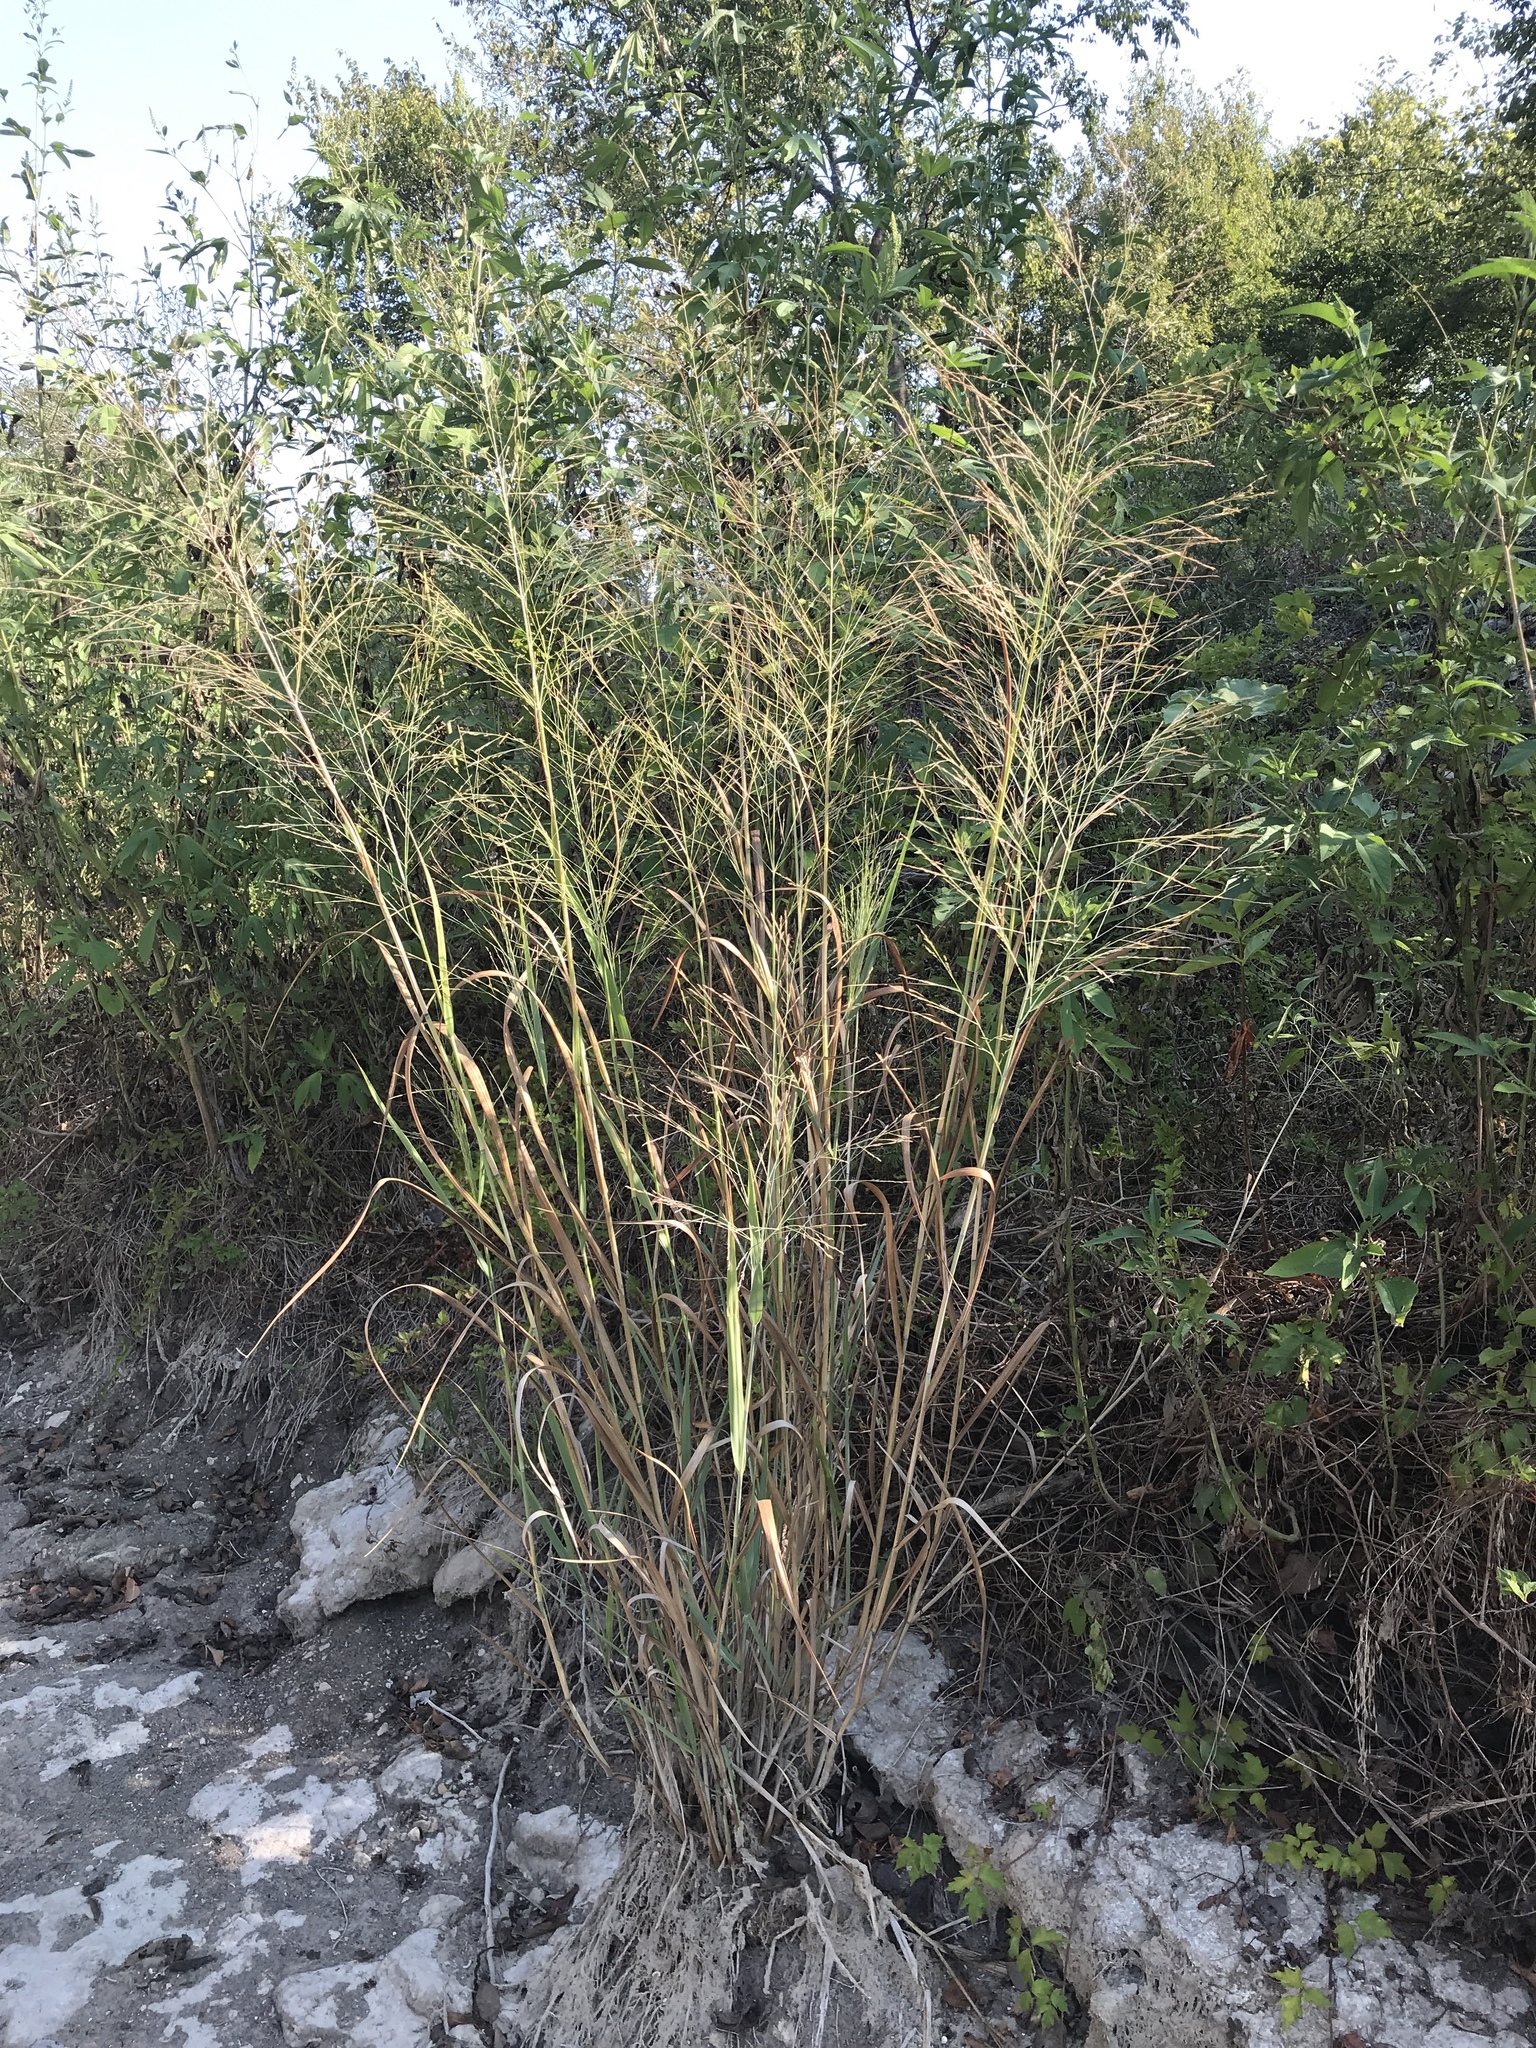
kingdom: Plantae
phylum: Tracheophyta
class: Liliopsida
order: Poales
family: Poaceae
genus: Panicum
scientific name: Panicum virgatum
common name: Switchgrass
